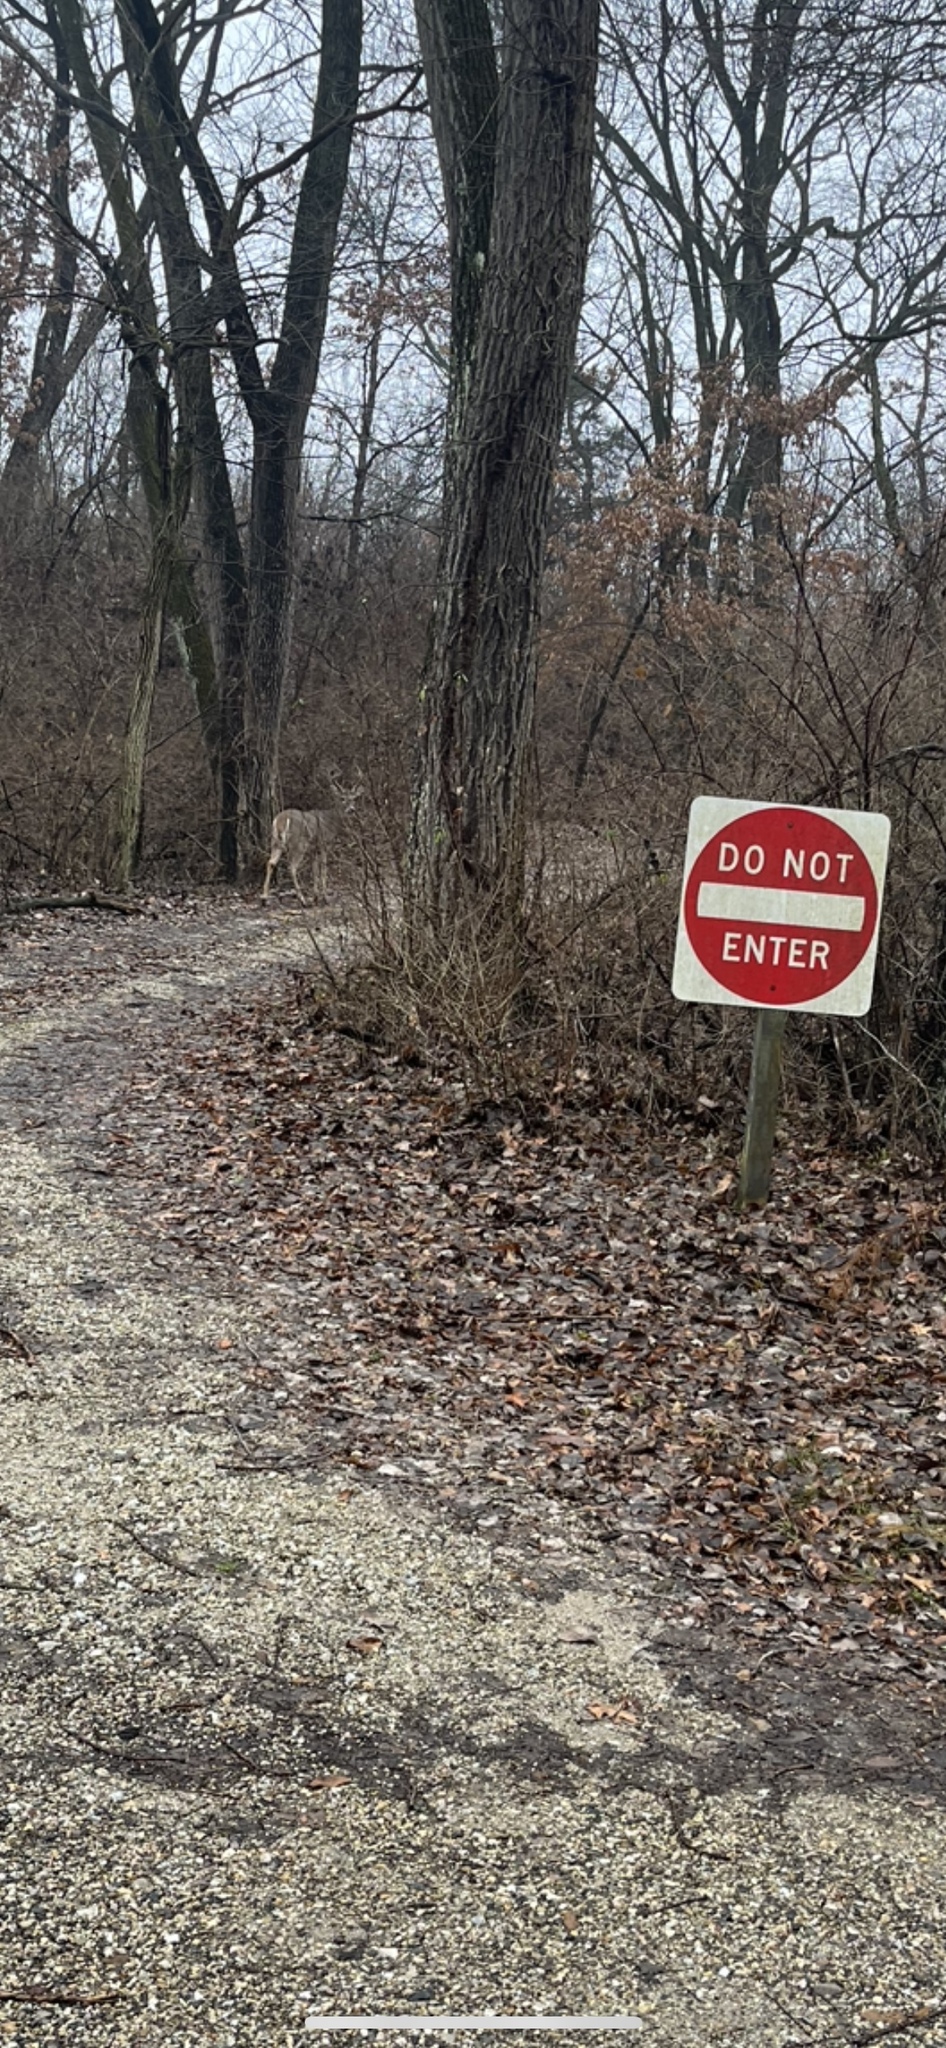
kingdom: Animalia
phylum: Chordata
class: Mammalia
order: Artiodactyla
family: Cervidae
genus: Odocoileus
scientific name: Odocoileus virginianus
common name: White-tailed deer
